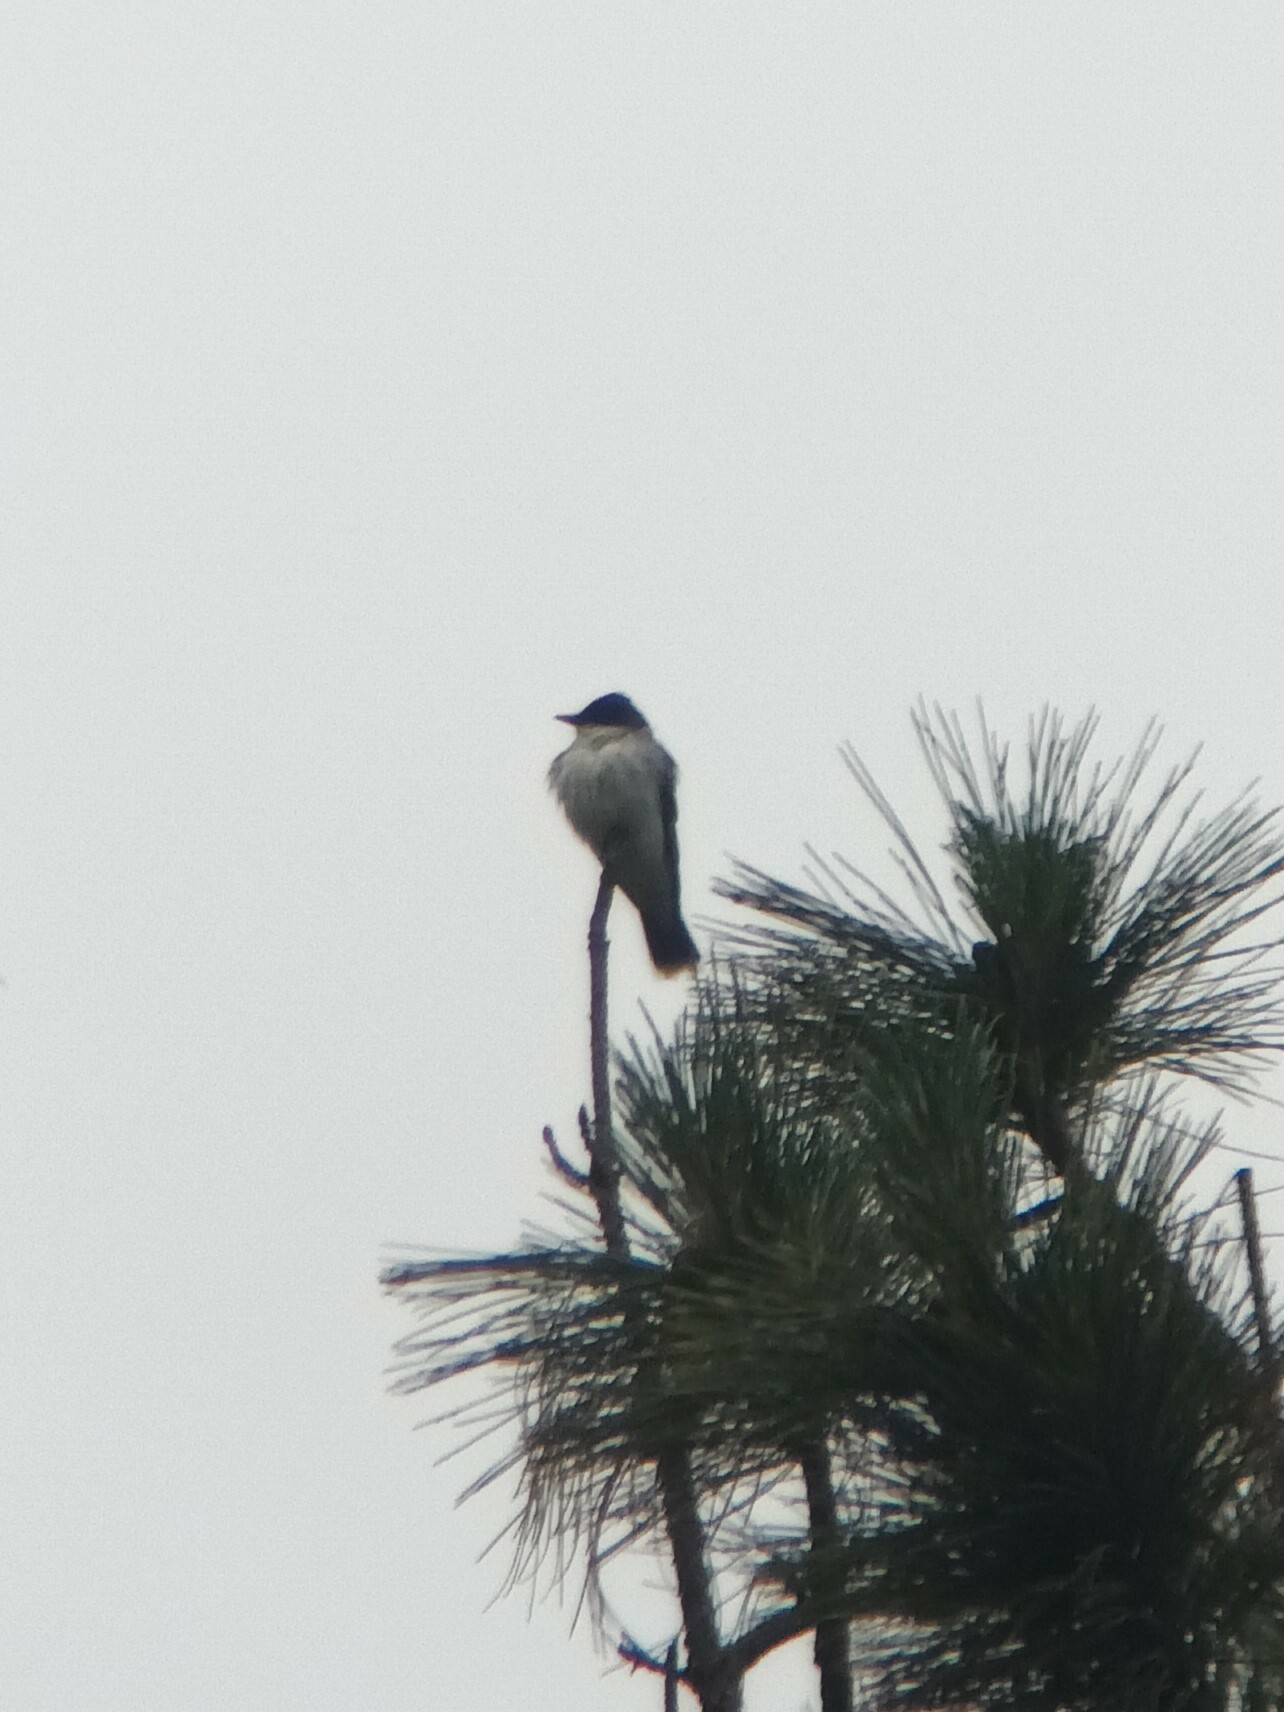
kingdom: Animalia
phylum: Chordata
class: Aves
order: Passeriformes
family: Tyrannidae
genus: Tyrannus
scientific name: Tyrannus tyrannus
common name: Eastern kingbird
